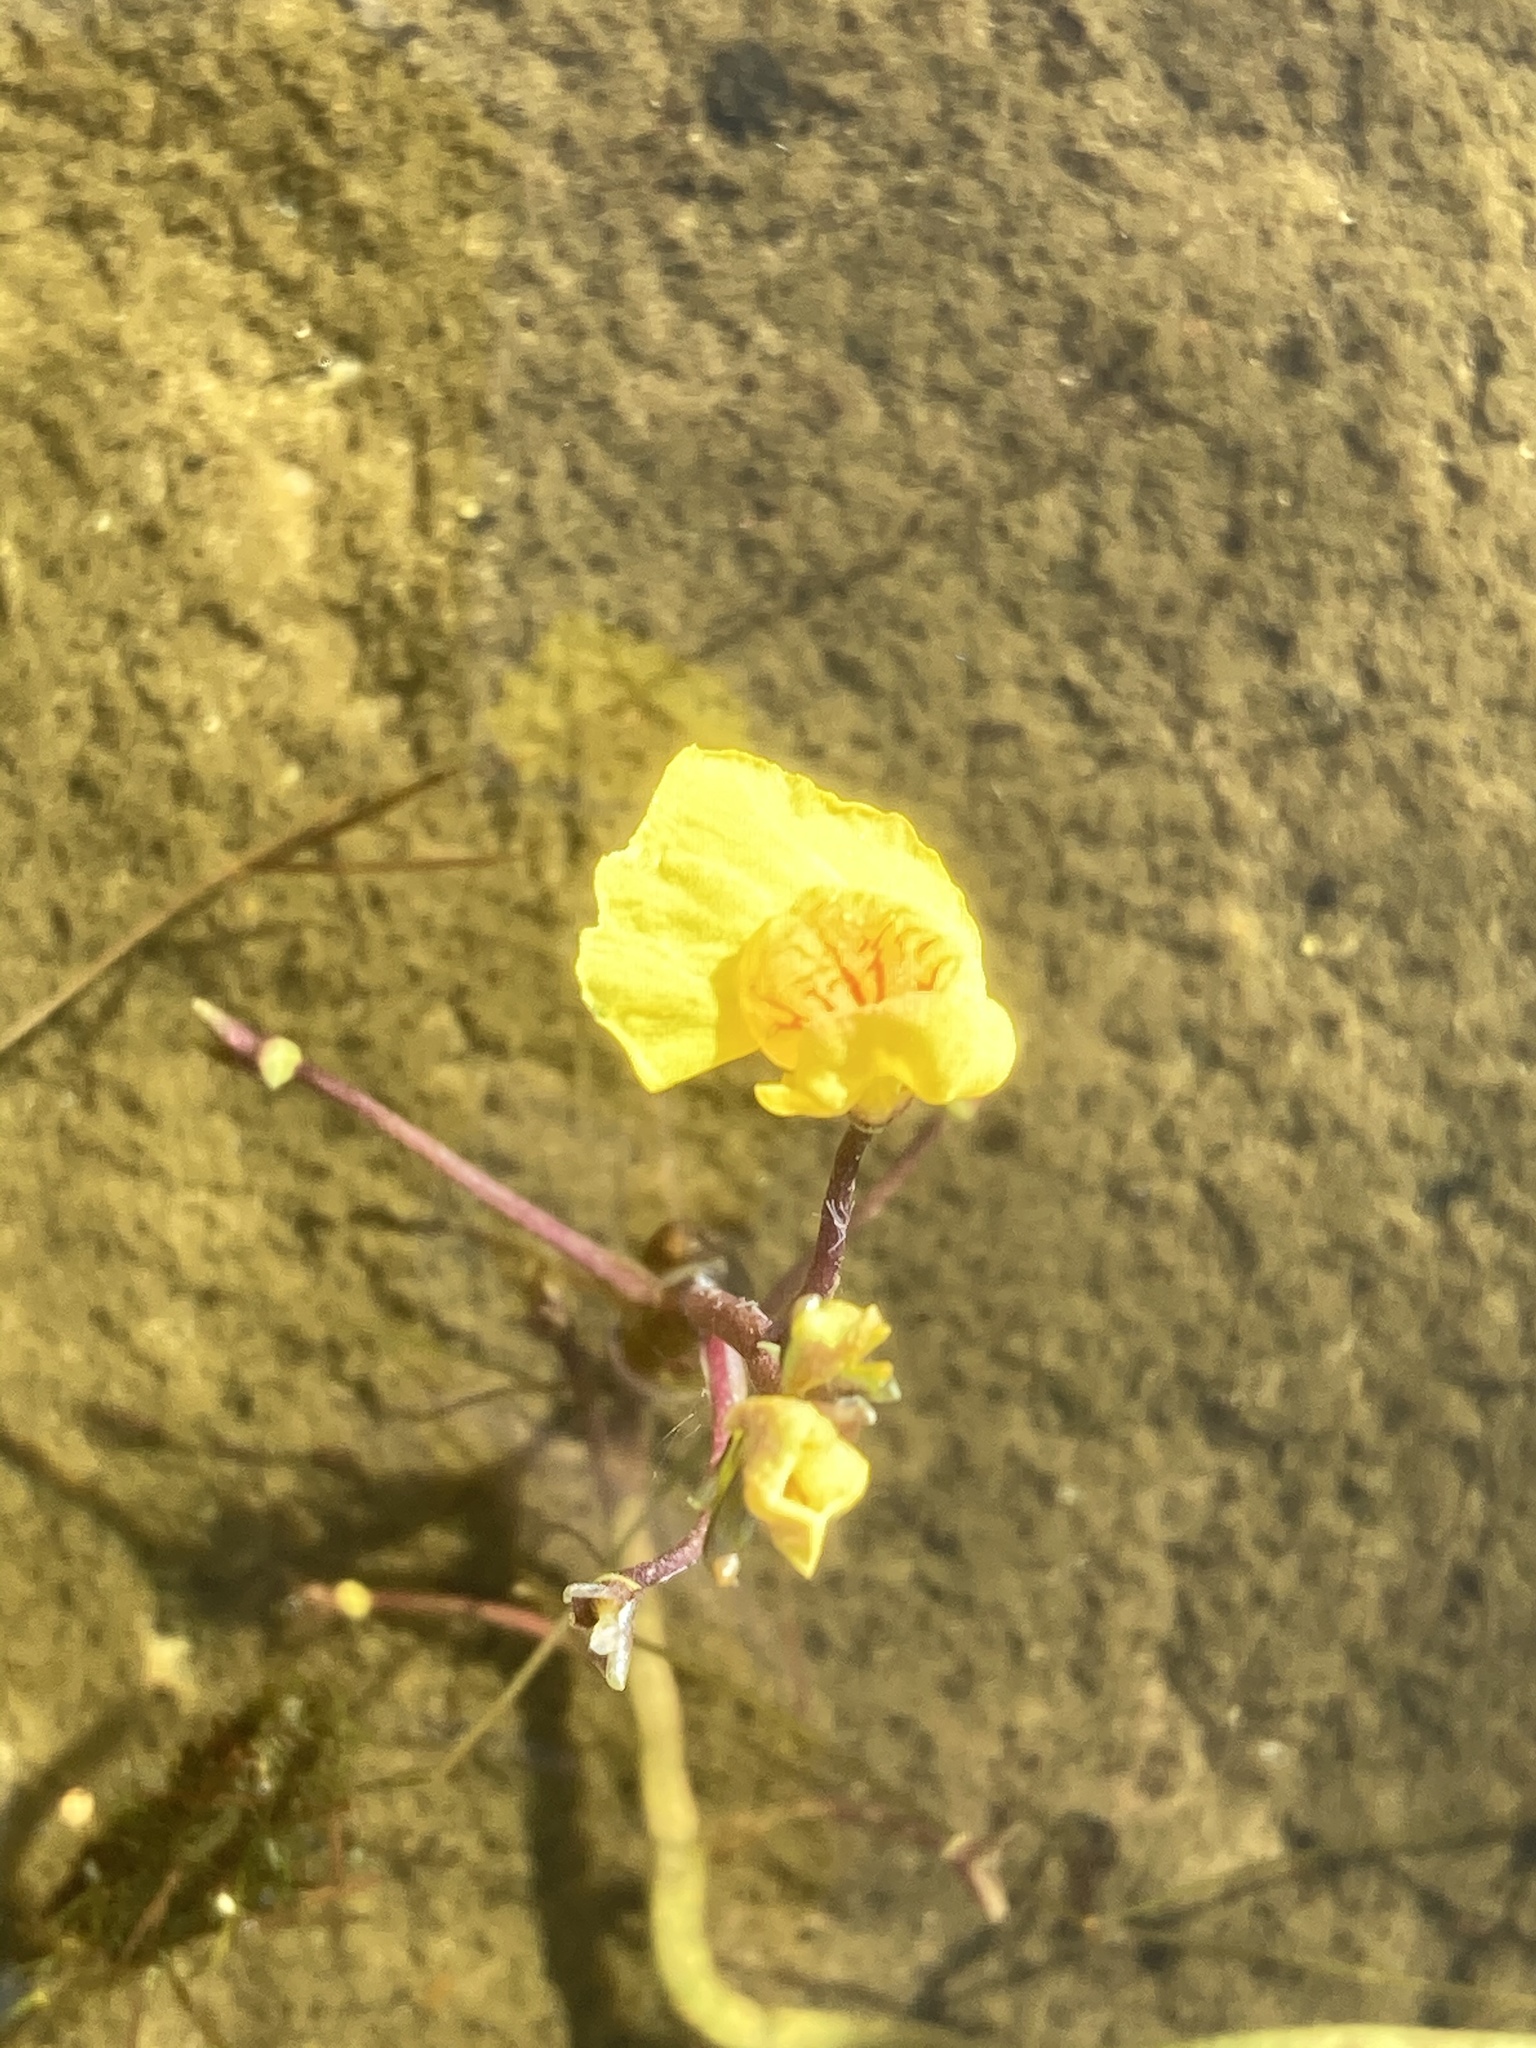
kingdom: Plantae
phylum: Tracheophyta
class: Magnoliopsida
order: Lamiales
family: Lentibulariaceae
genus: Utricularia
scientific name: Utricularia australis
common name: Bladderwort
